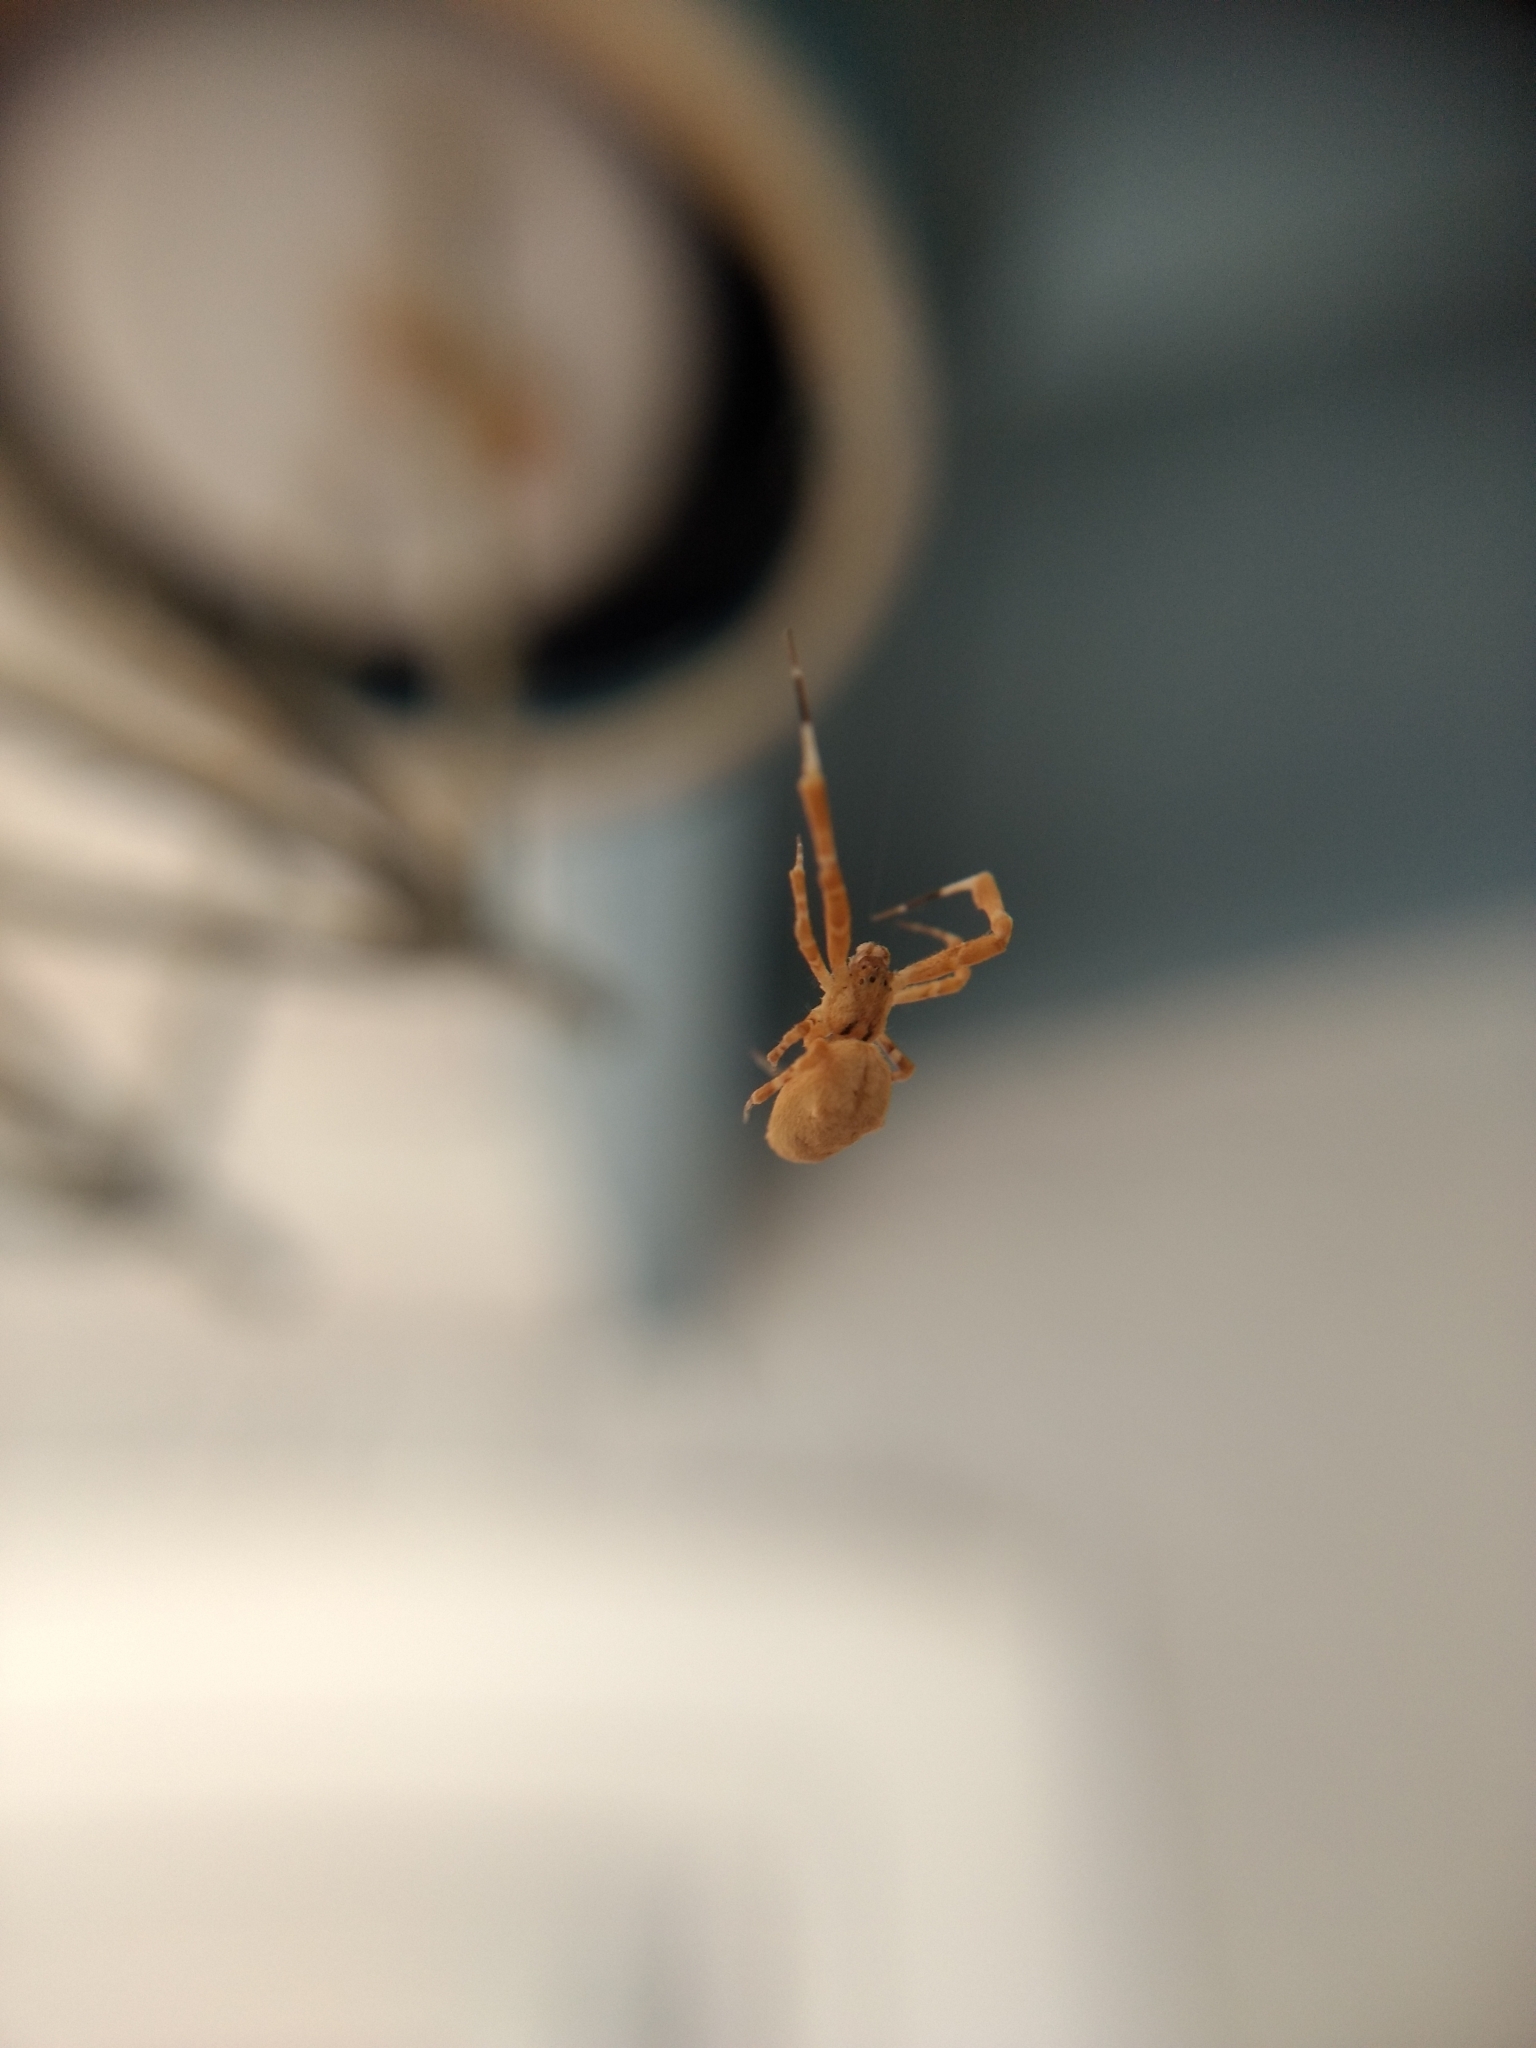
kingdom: Animalia
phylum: Arthropoda
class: Arachnida
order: Araneae
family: Uloboridae
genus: Uloborus
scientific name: Uloborus diversus
